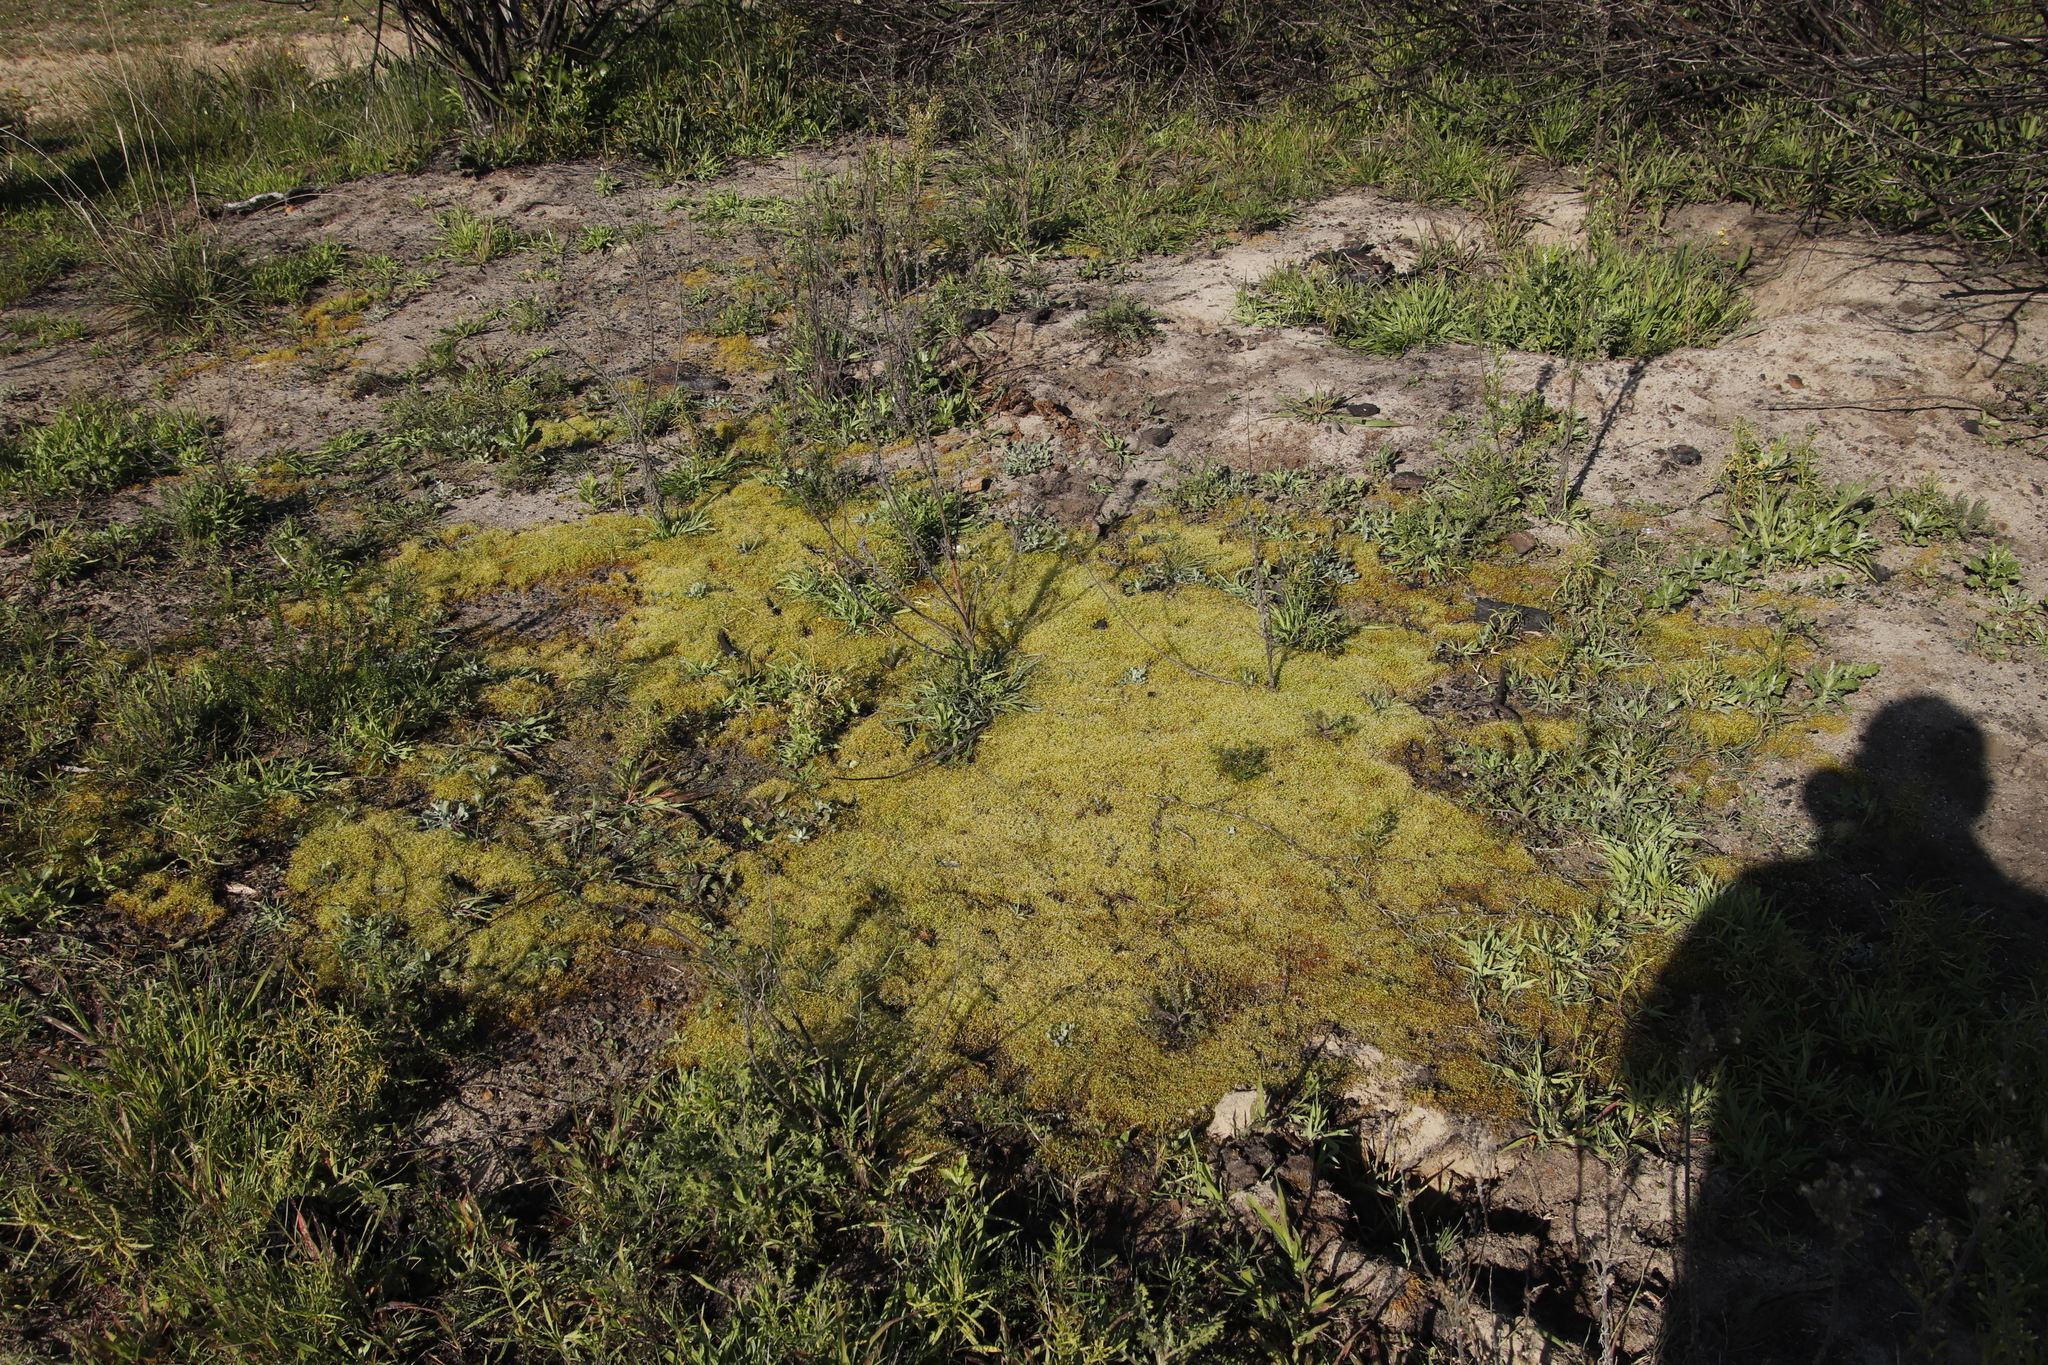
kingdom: Plantae
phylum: Bryophyta
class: Bryopsida
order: Funariales
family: Funariaceae
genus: Funaria
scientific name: Funaria hygrometrica
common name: Common cord moss
